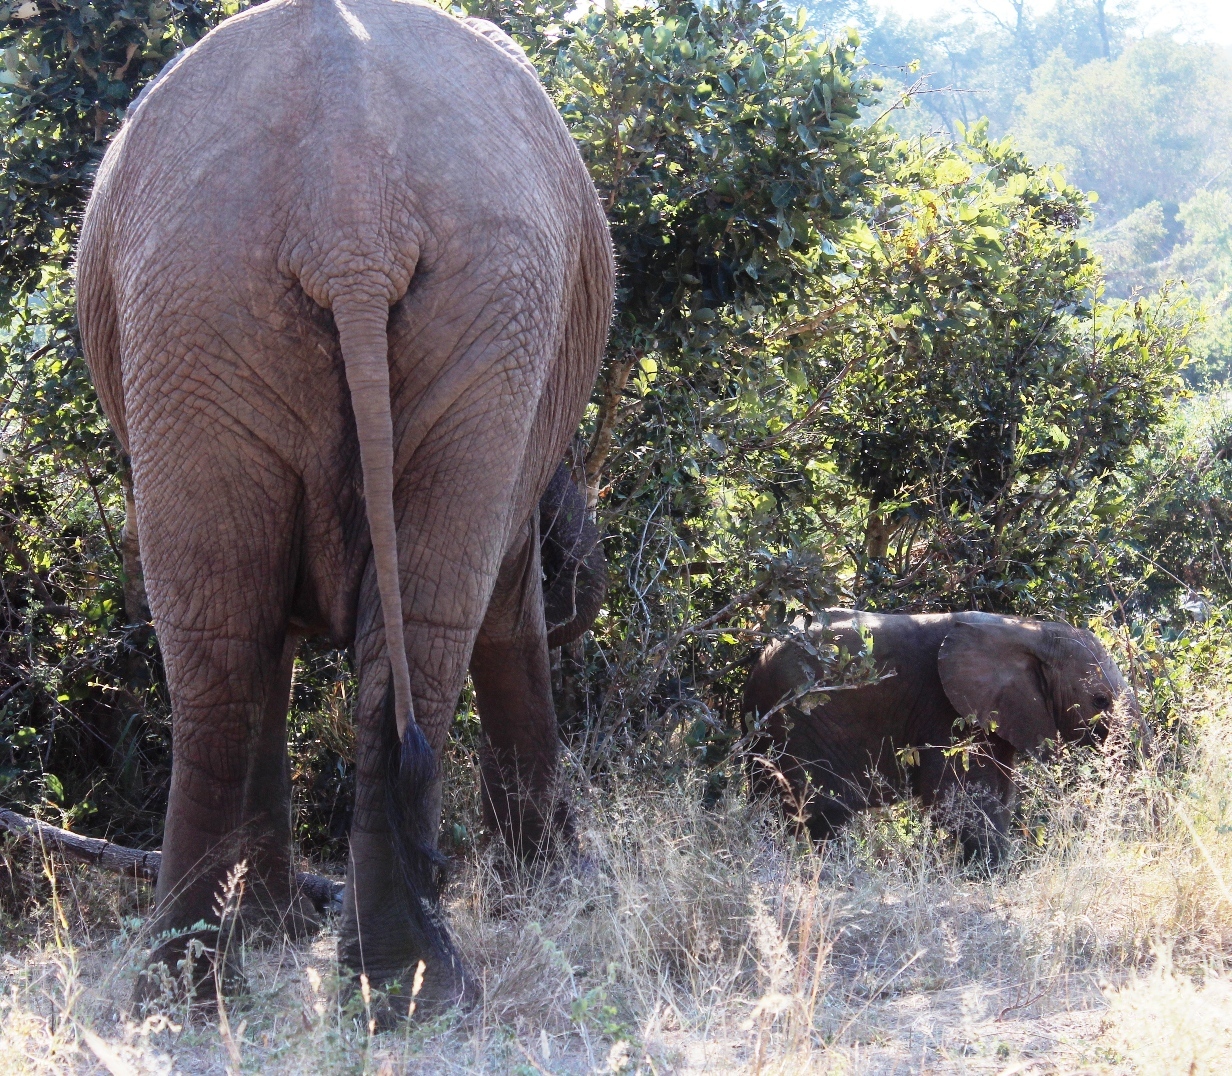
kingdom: Animalia
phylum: Chordata
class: Mammalia
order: Proboscidea
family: Elephantidae
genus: Loxodonta
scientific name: Loxodonta africana
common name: African elephant
